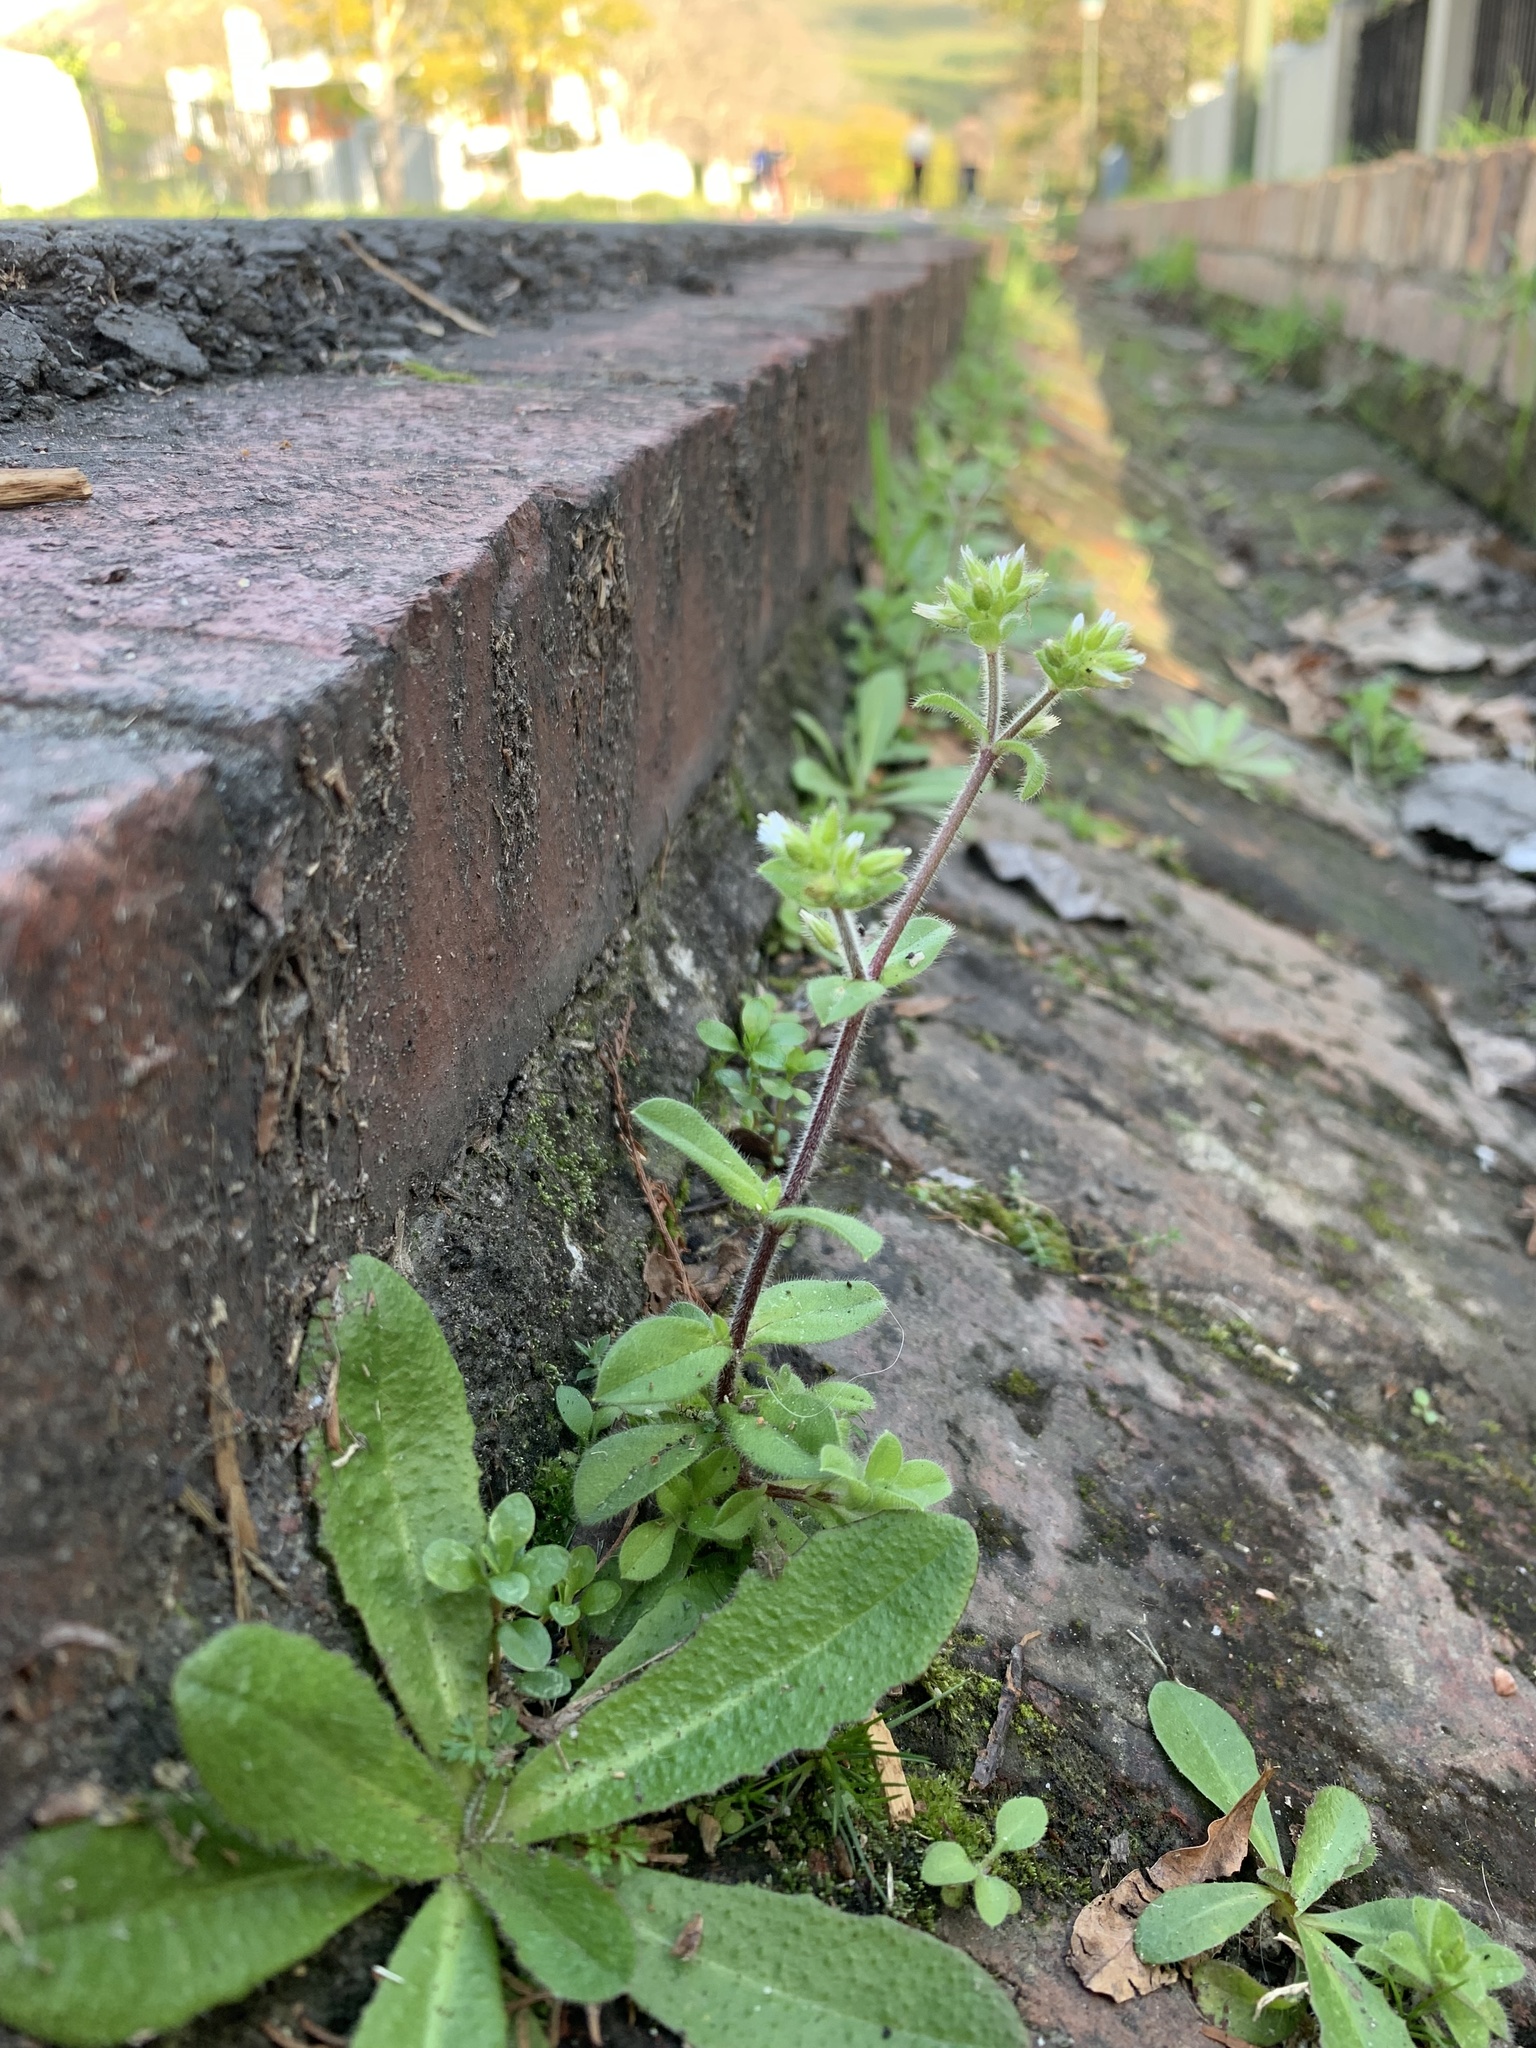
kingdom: Plantae
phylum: Tracheophyta
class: Magnoliopsida
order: Caryophyllales
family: Caryophyllaceae
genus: Cerastium
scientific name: Cerastium glomeratum
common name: Sticky chickweed
